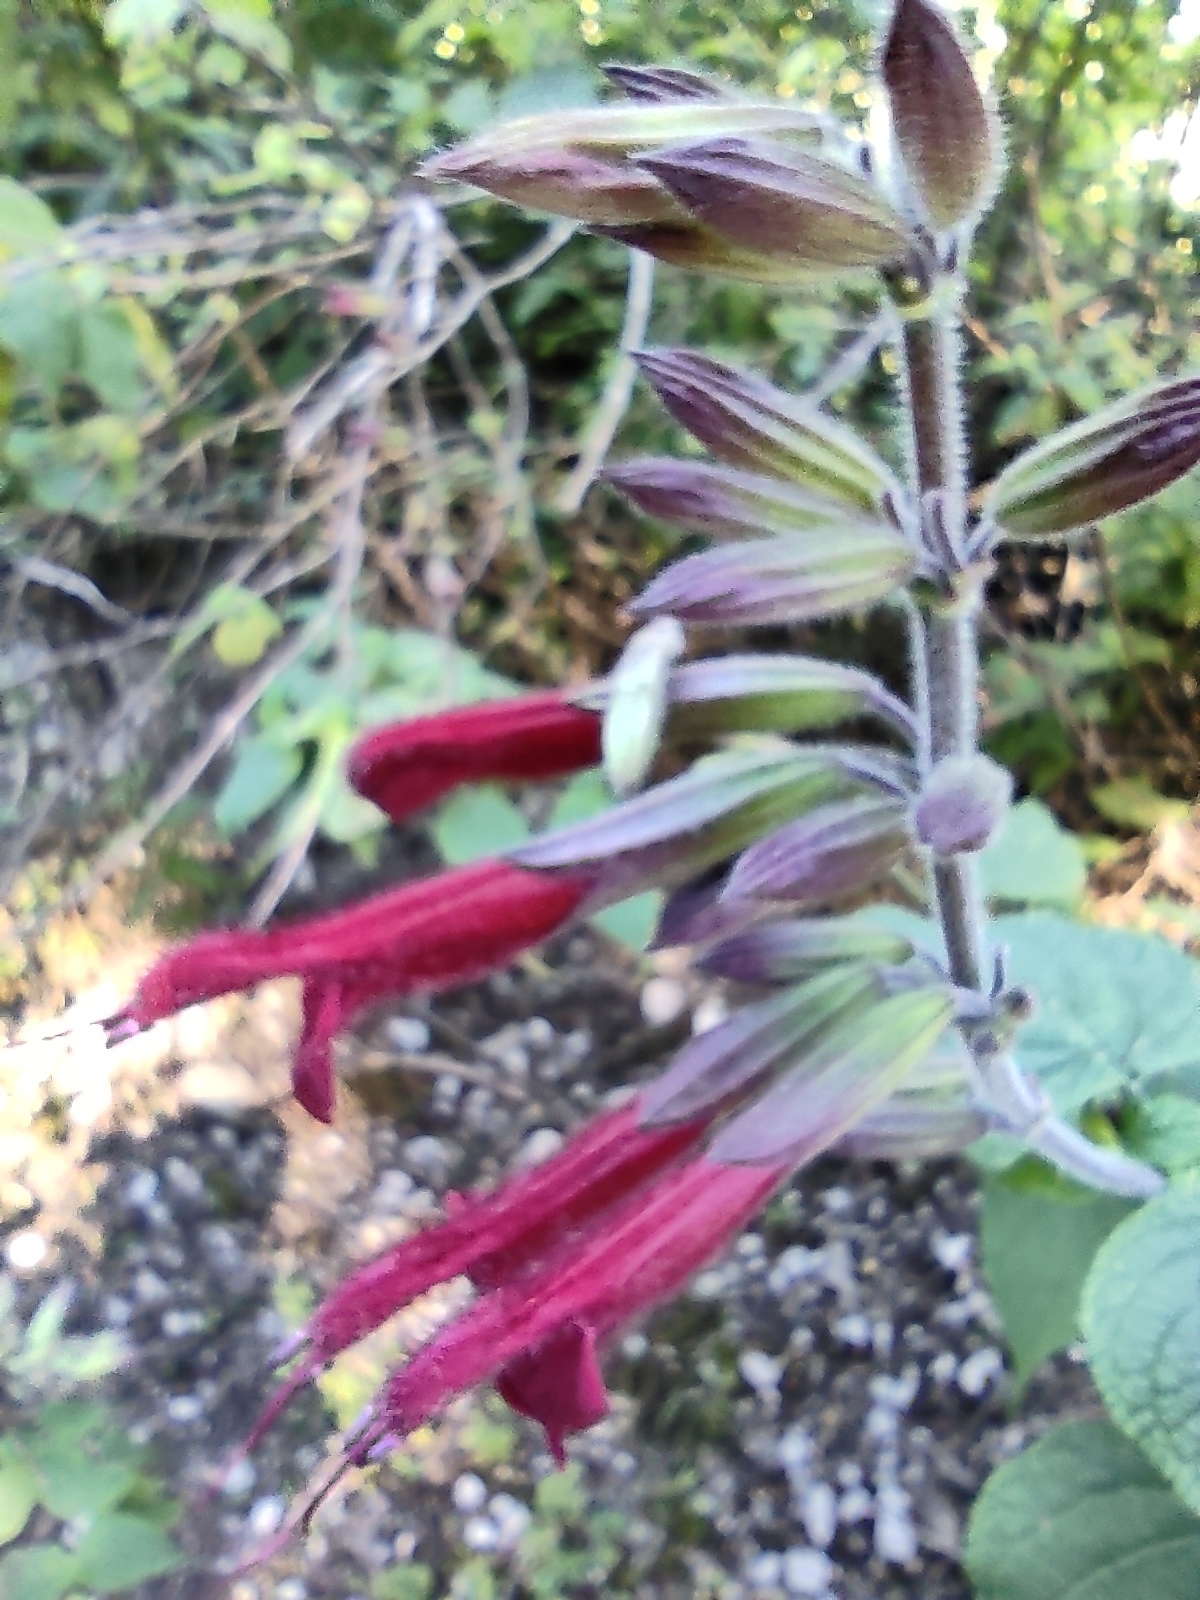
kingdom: Plantae
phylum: Tracheophyta
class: Magnoliopsida
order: Lamiales
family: Lamiaceae
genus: Salvia
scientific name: Salvia longistyla
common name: Mexican sage
